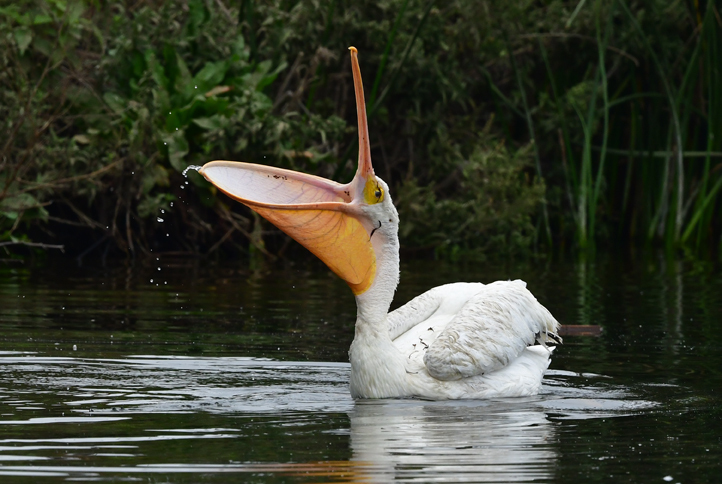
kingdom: Animalia
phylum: Chordata
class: Aves
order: Pelecaniformes
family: Pelecanidae
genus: Pelecanus
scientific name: Pelecanus erythrorhynchos
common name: American white pelican
